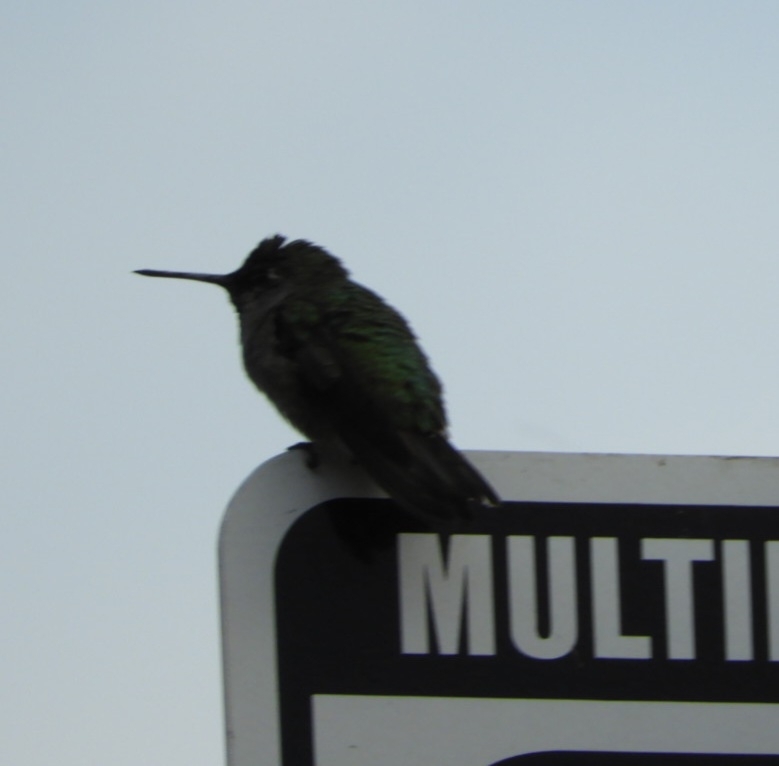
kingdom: Animalia
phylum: Chordata
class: Aves
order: Apodiformes
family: Trochilidae
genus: Calypte
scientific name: Calypte anna
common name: Anna's hummingbird
